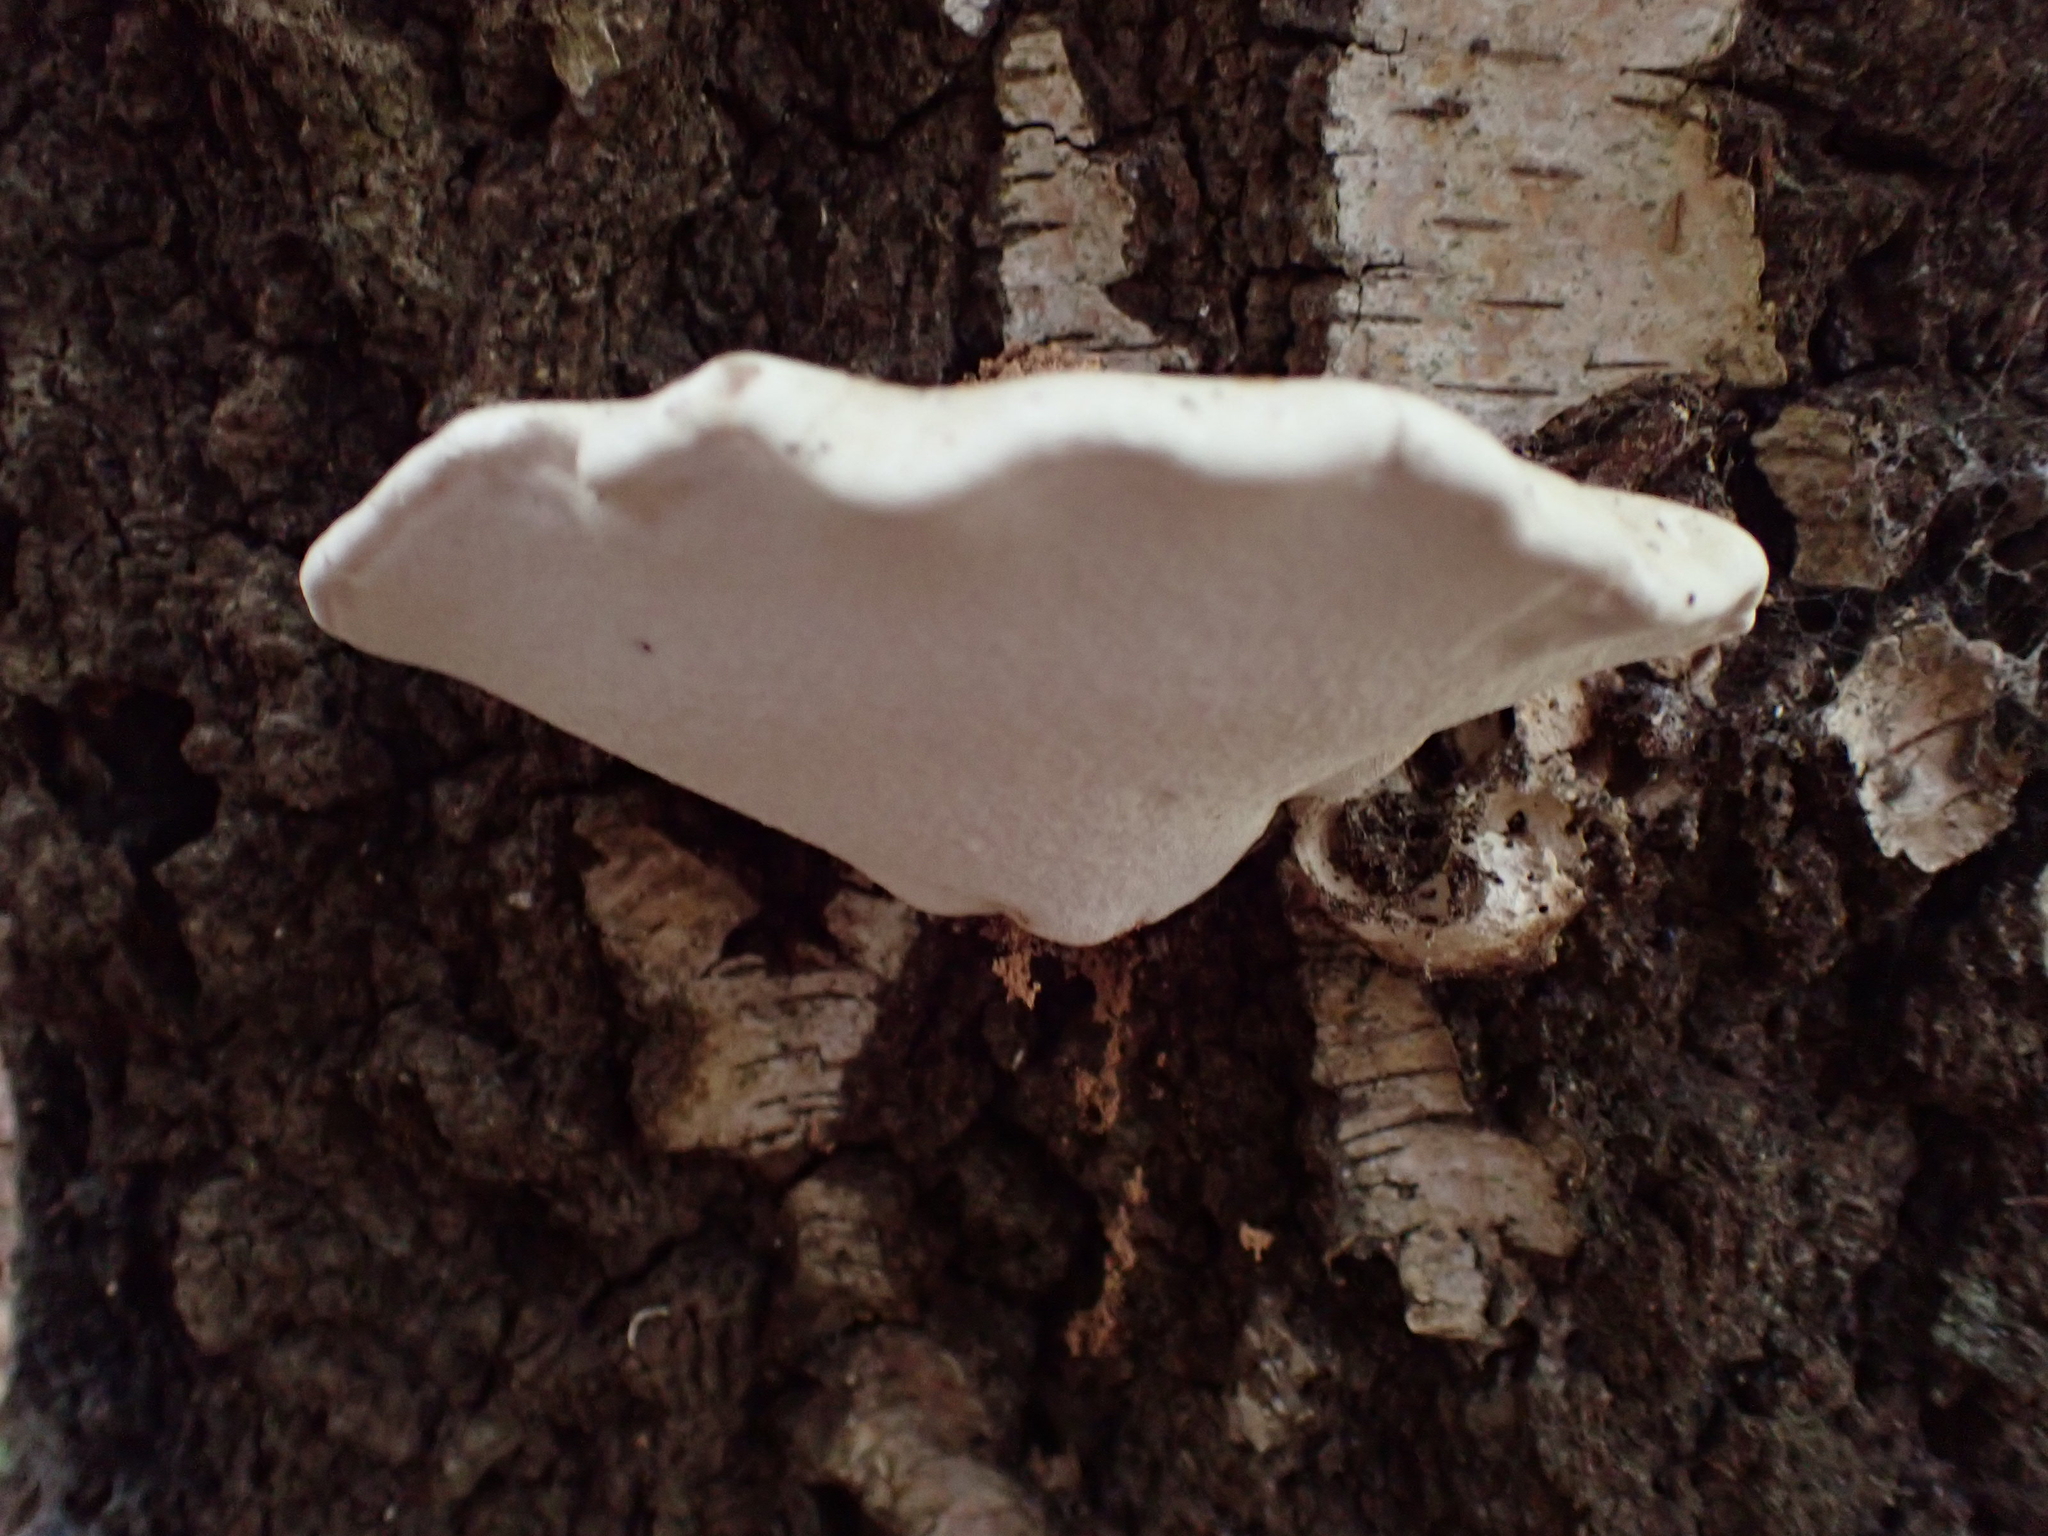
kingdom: Fungi
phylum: Basidiomycota
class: Agaricomycetes
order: Polyporales
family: Fomitopsidaceae
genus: Fomitopsis
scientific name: Fomitopsis betulina
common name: Birch polypore
